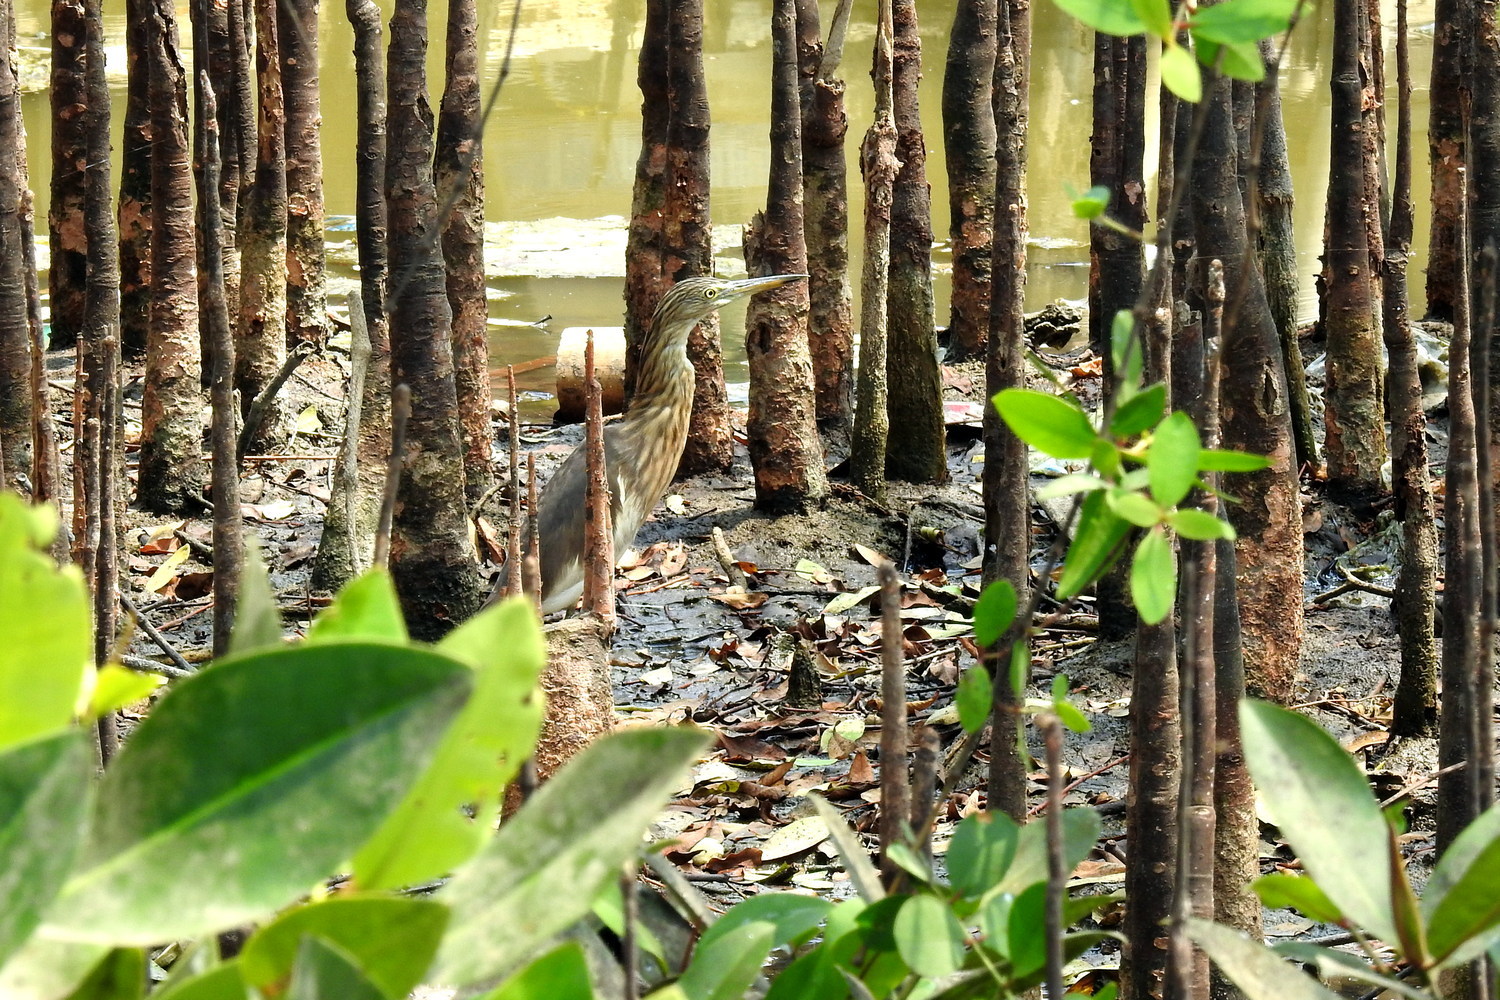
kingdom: Animalia
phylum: Chordata
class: Aves
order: Pelecaniformes
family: Ardeidae
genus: Ardeola
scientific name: Ardeola speciosa
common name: Javan pond heron
